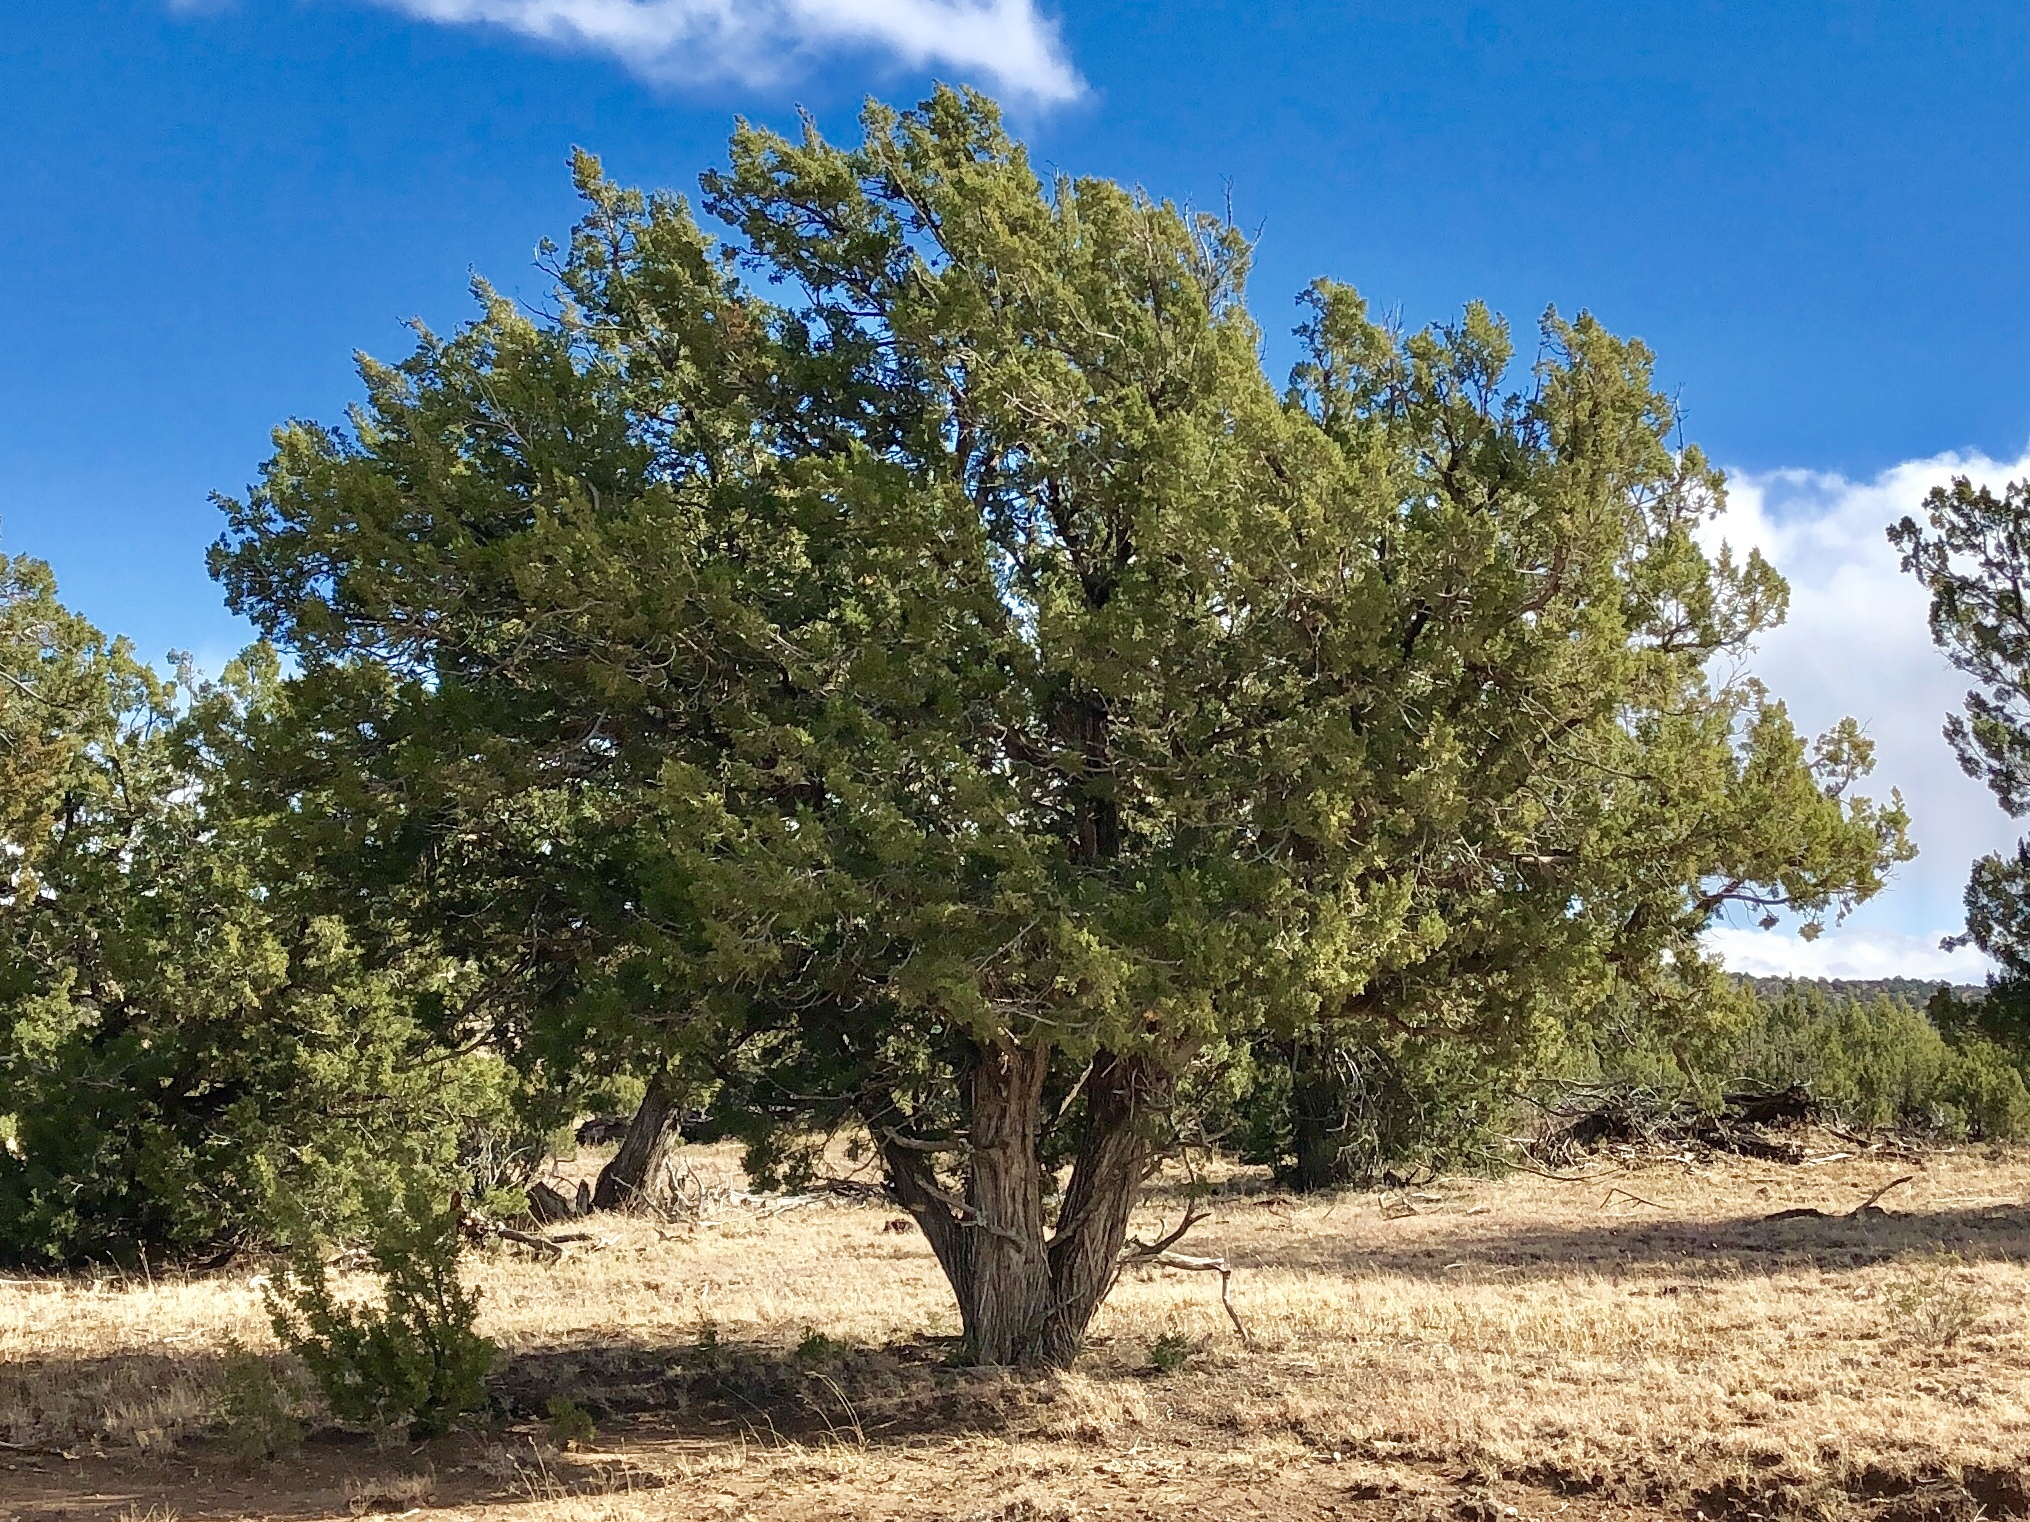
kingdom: Plantae
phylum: Tracheophyta
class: Pinopsida
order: Pinales
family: Cupressaceae
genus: Juniperus
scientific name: Juniperus monosperma
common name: One-seed juniper
